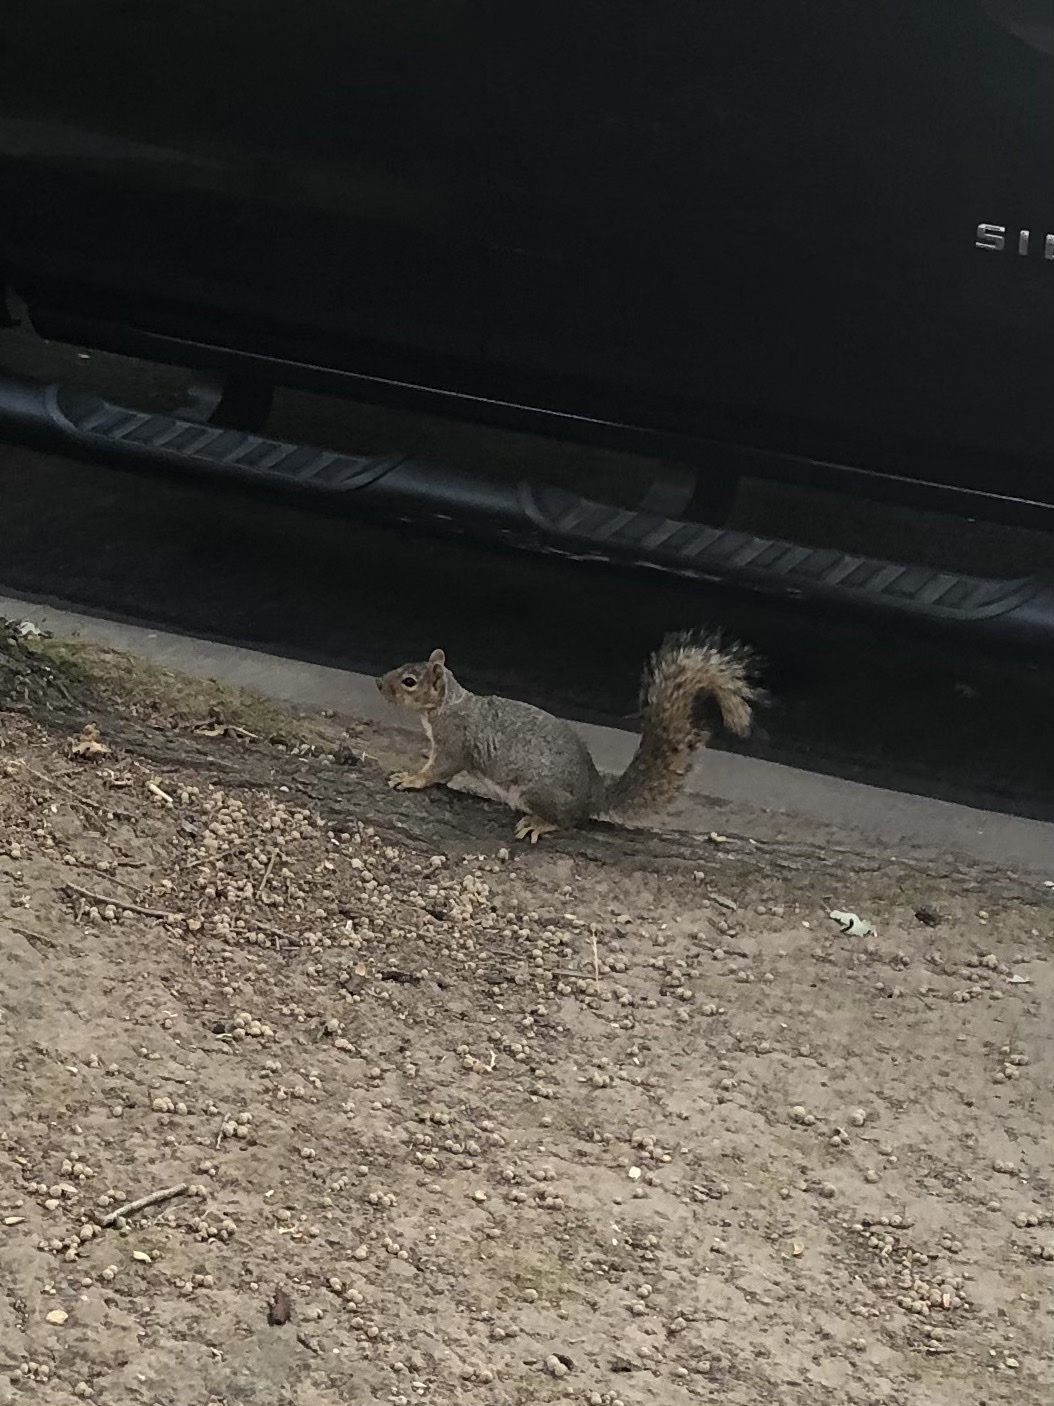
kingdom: Animalia
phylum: Chordata
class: Mammalia
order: Rodentia
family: Sciuridae
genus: Sciurus
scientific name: Sciurus niger
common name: Fox squirrel
